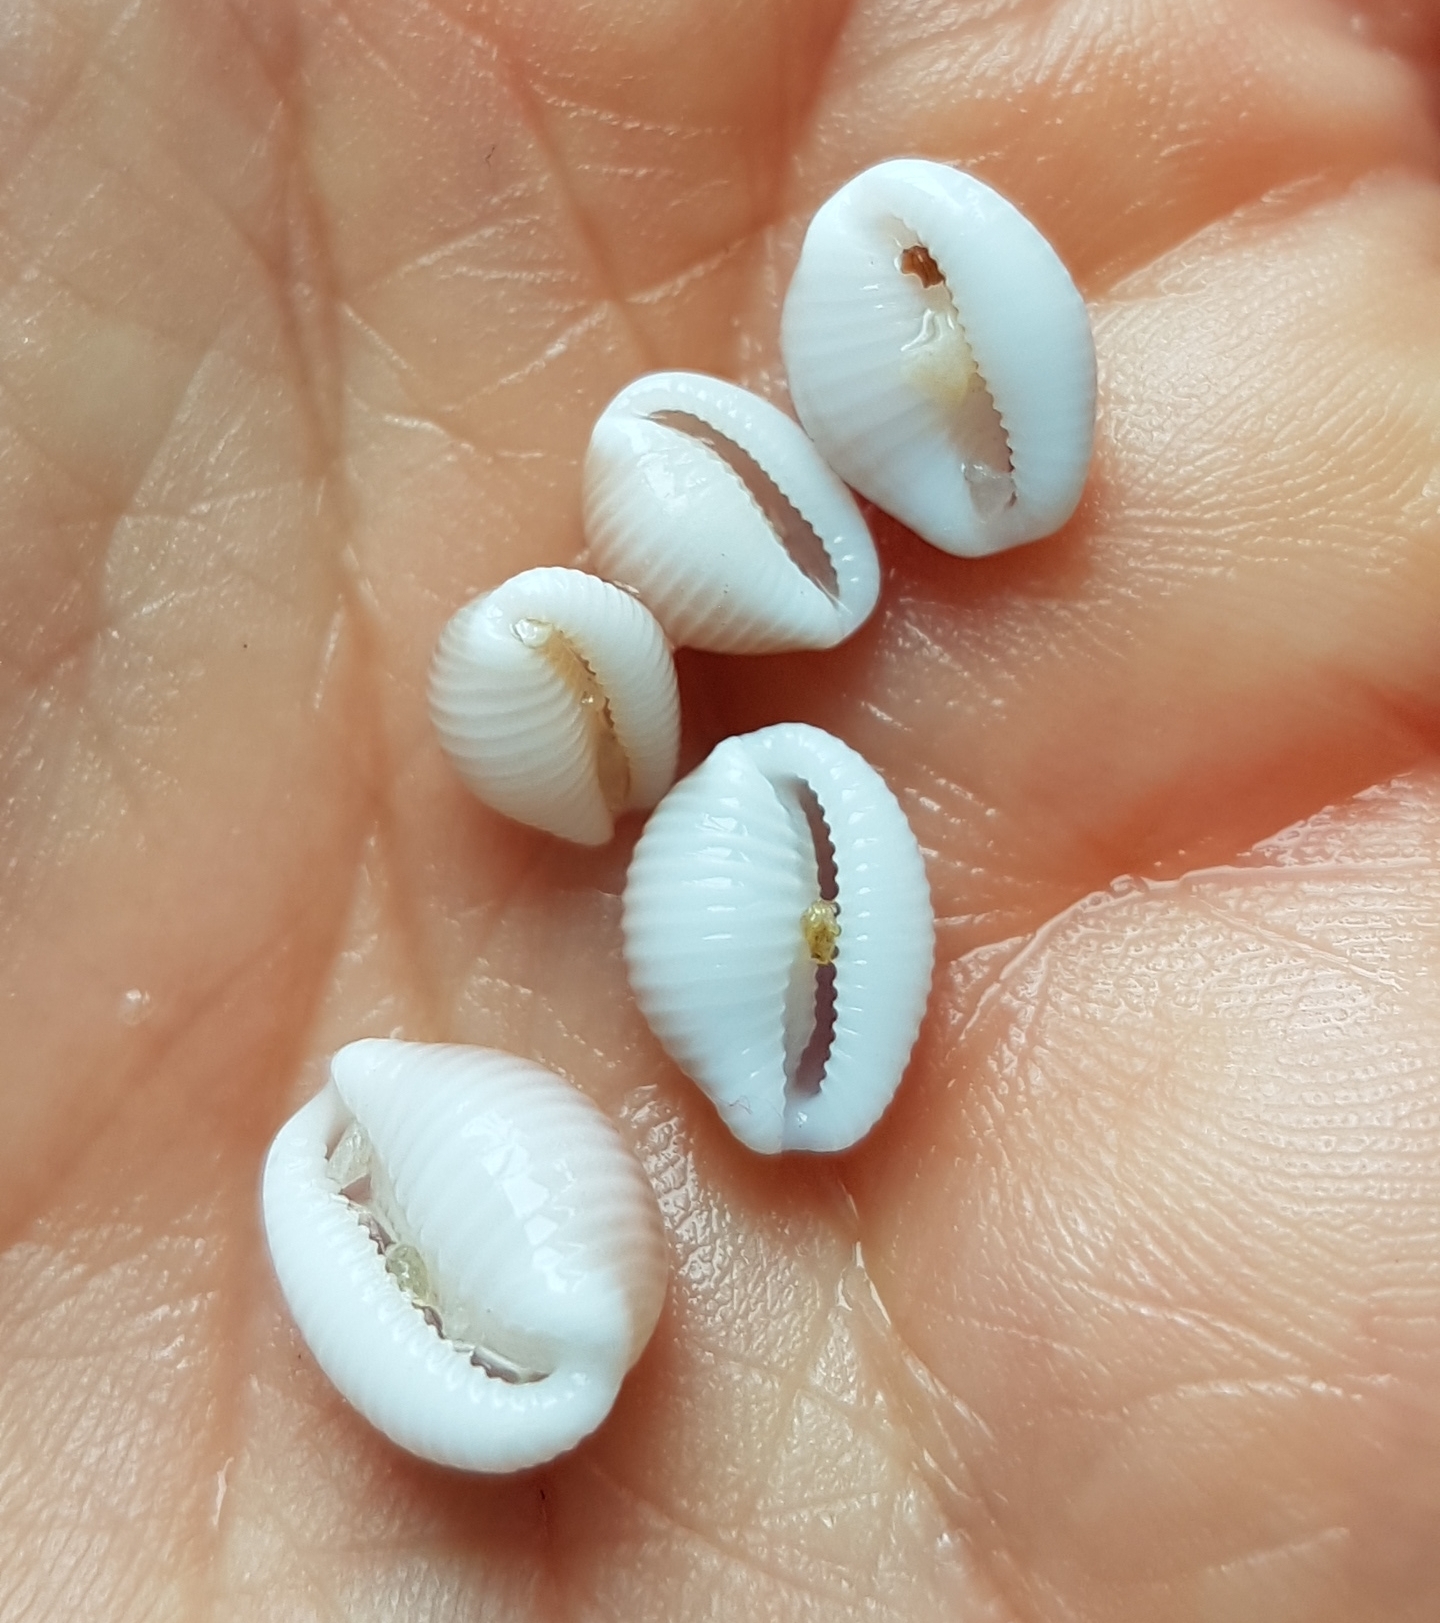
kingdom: Animalia
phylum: Mollusca
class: Gastropoda
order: Littorinimorpha
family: Triviidae
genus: Trivia
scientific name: Trivia monacha
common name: Spotted cowrie
